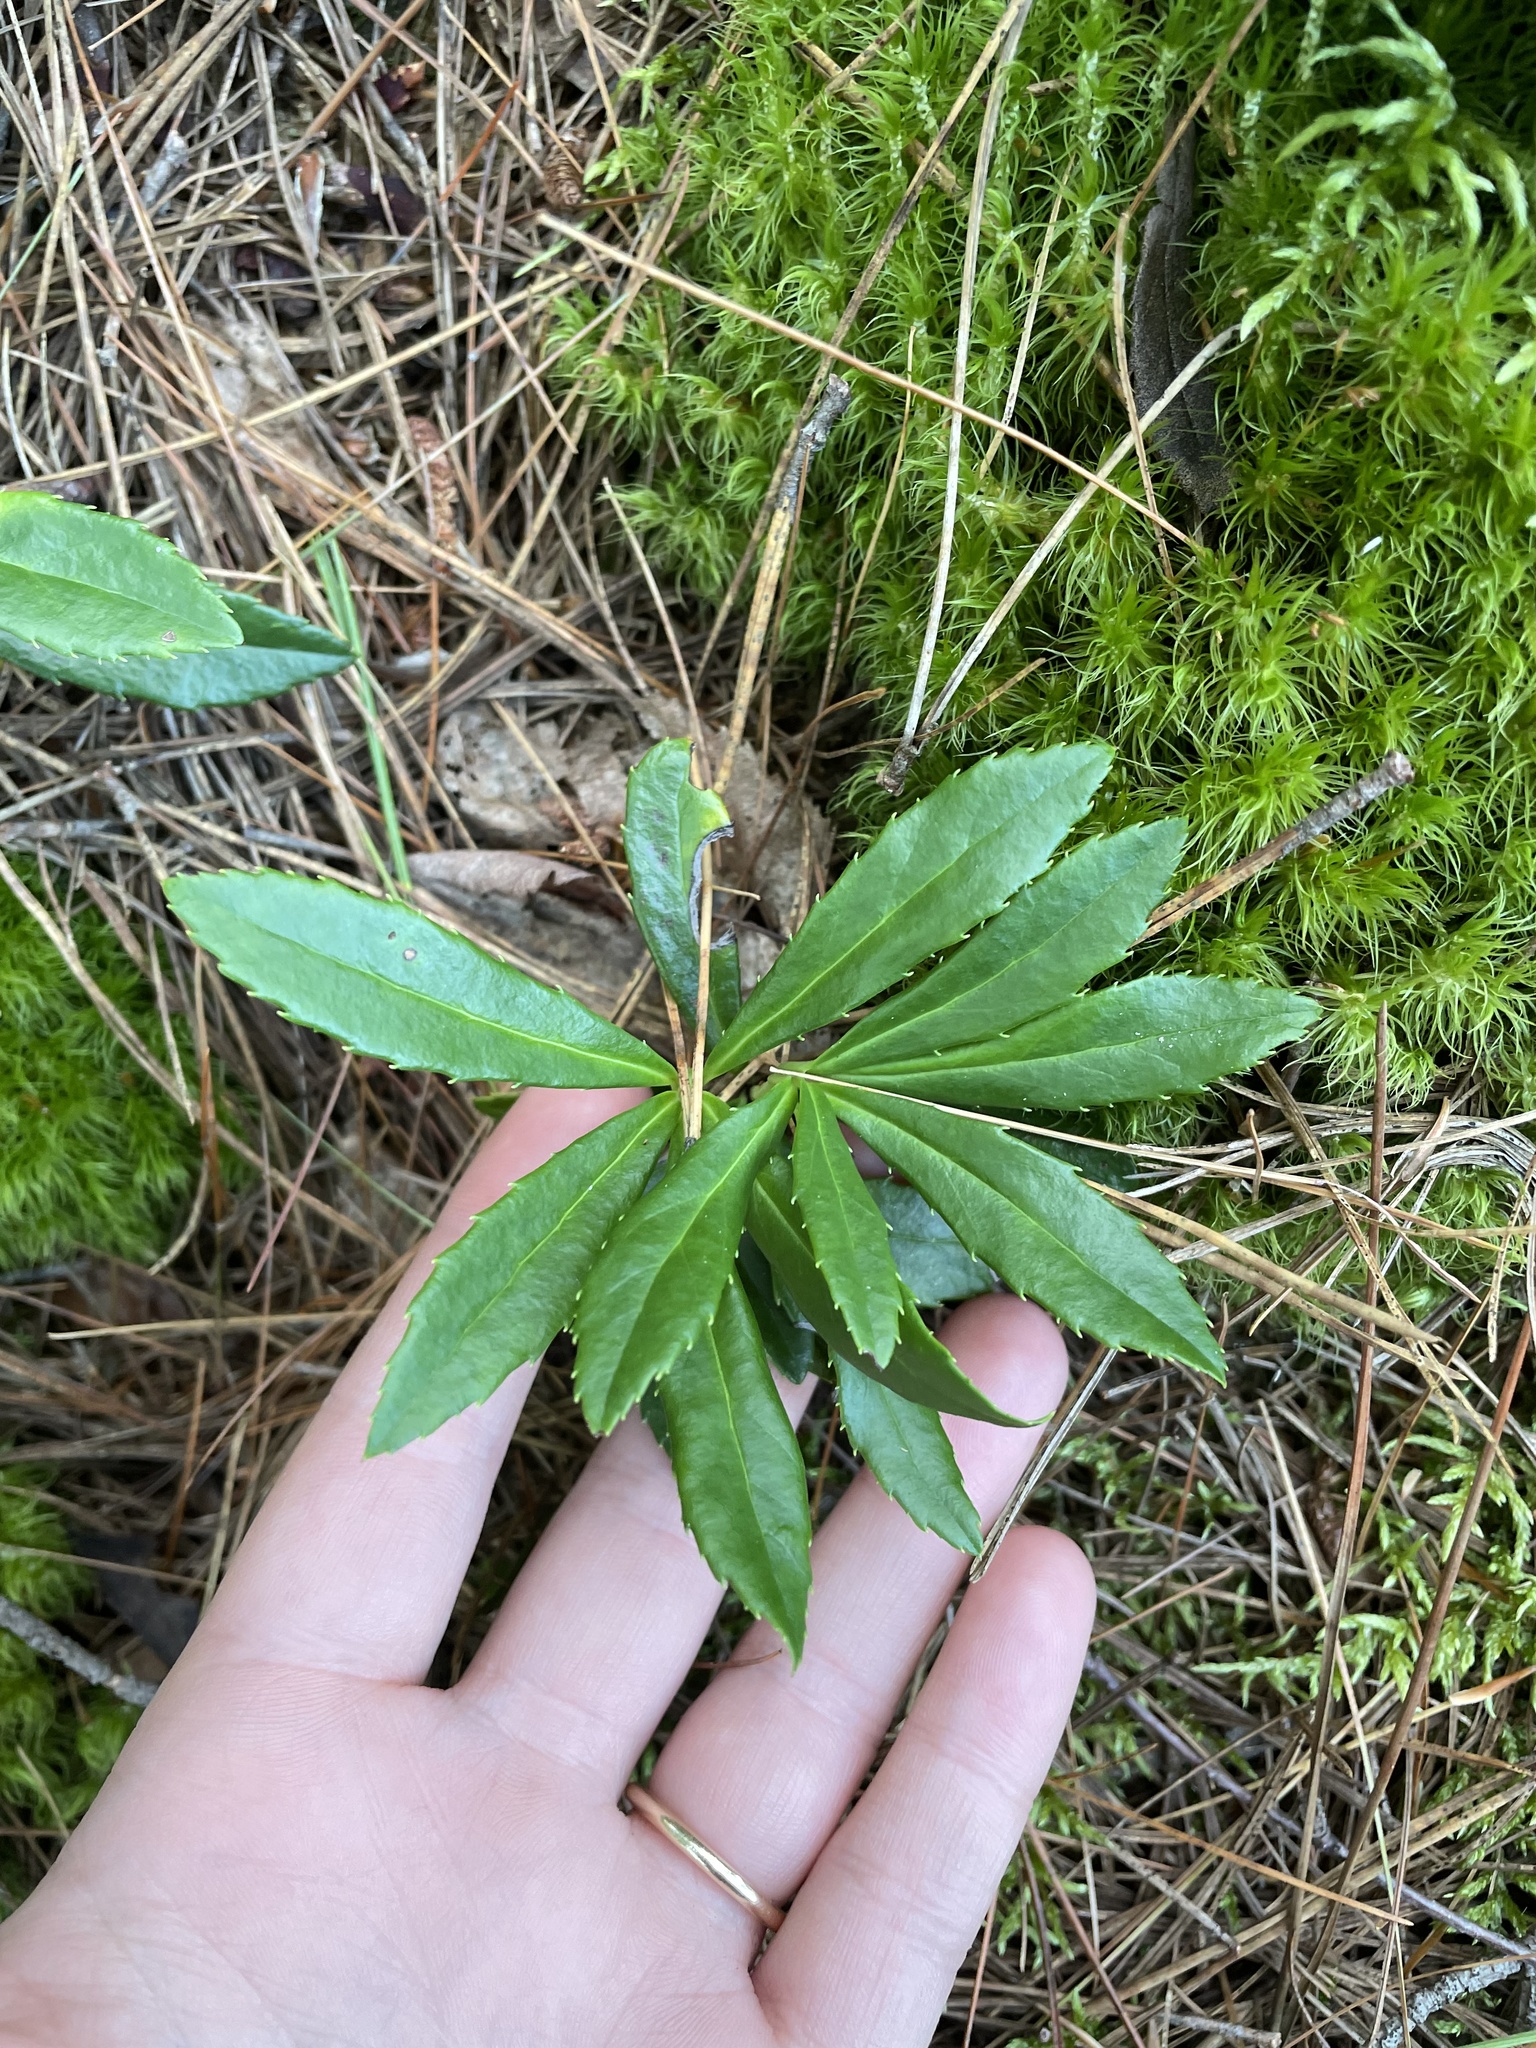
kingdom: Plantae
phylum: Tracheophyta
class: Magnoliopsida
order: Ericales
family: Ericaceae
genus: Chimaphila
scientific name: Chimaphila umbellata
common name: Pipsissewa
